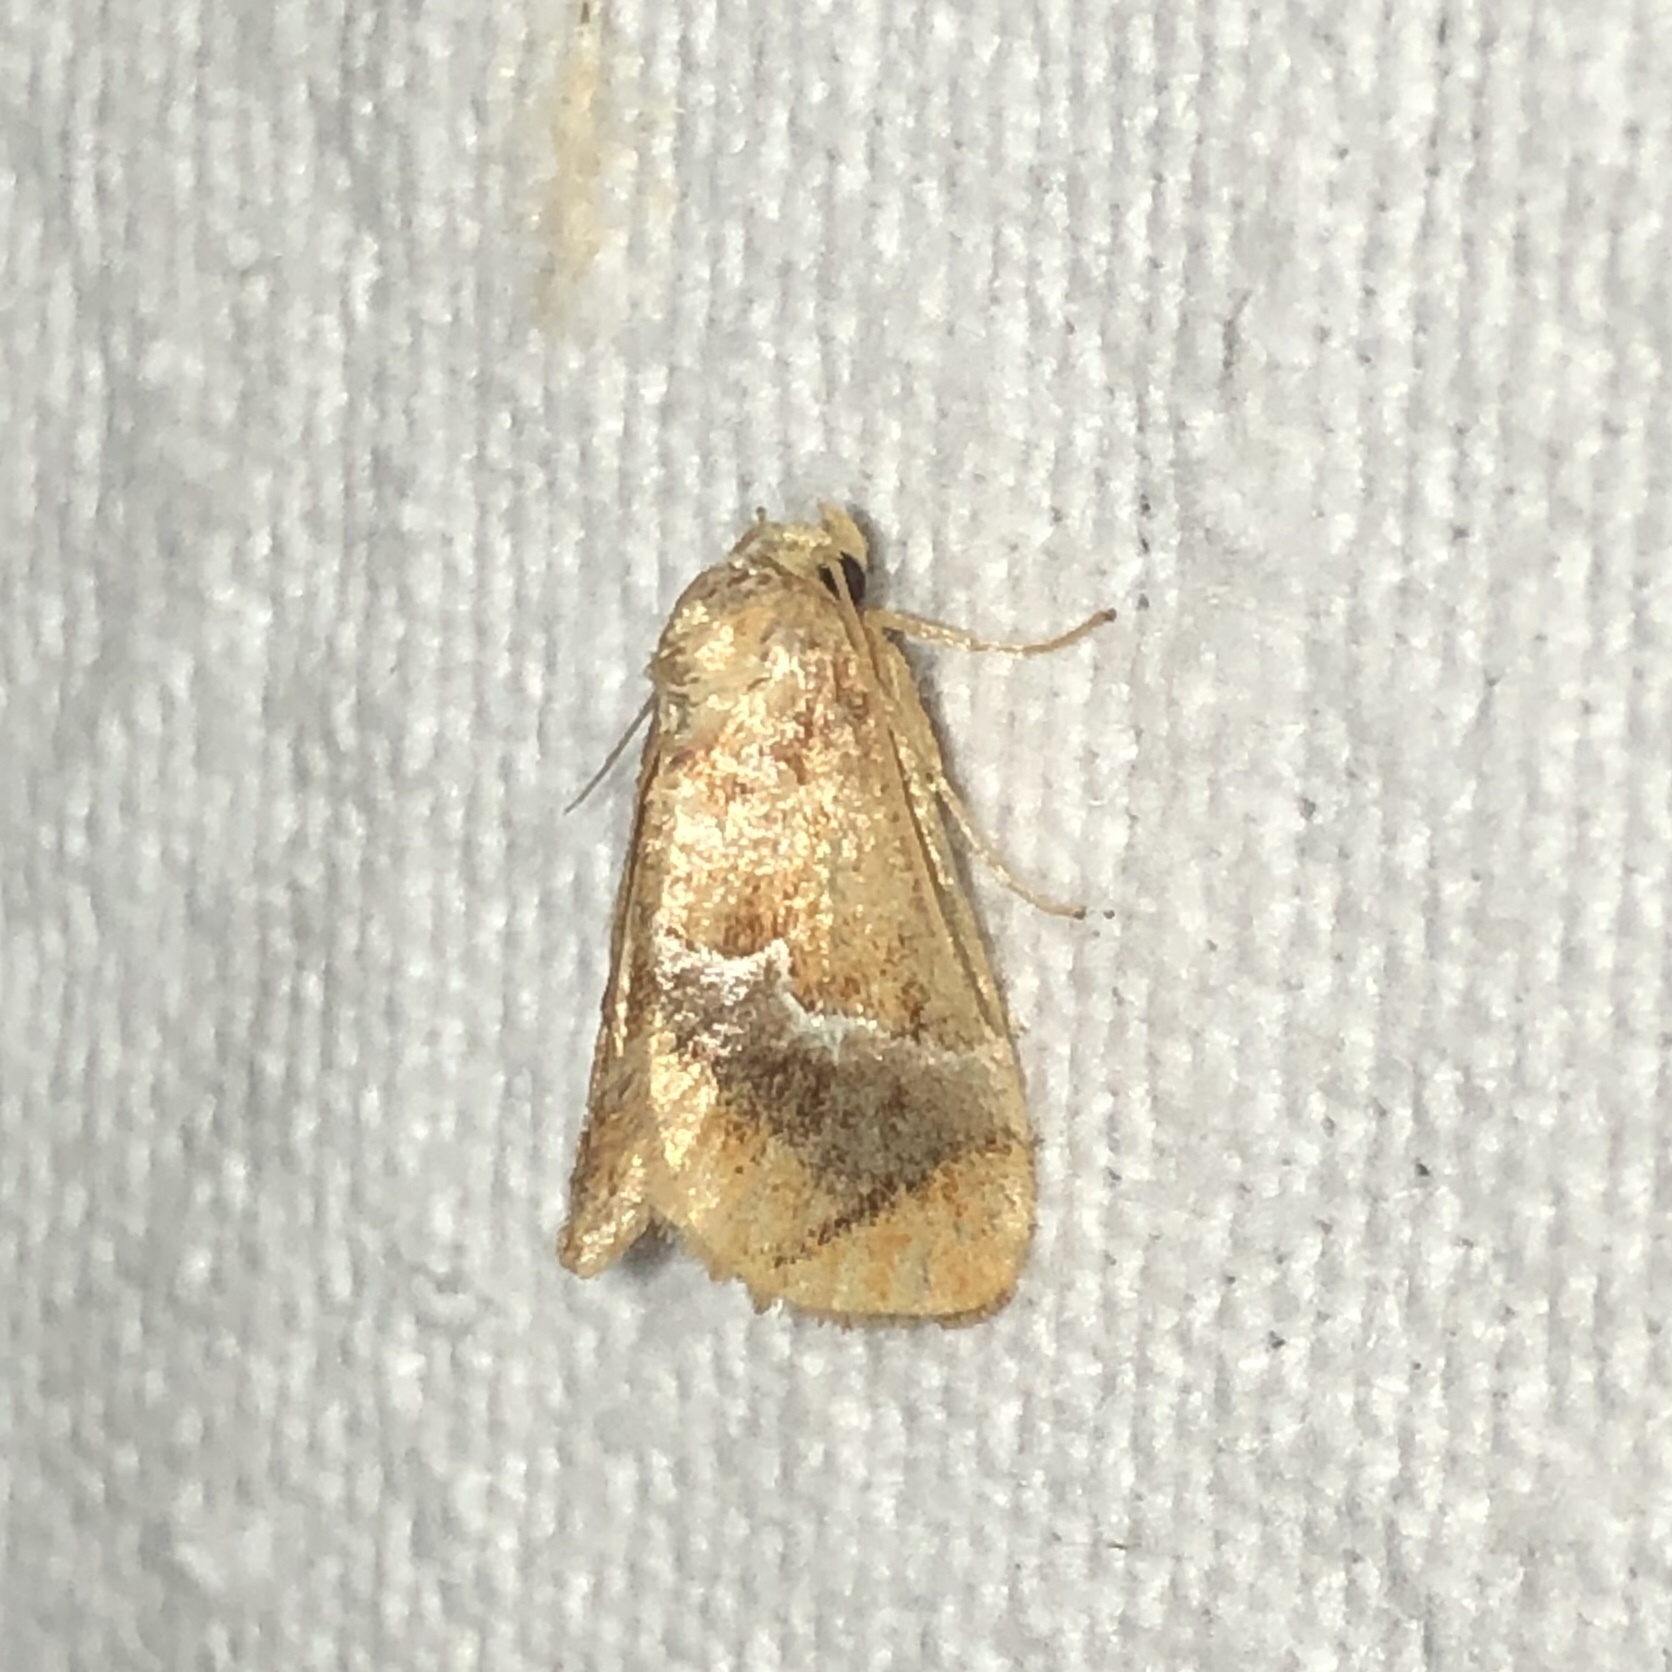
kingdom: Animalia
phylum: Arthropoda
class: Insecta
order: Lepidoptera
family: Limacodidae
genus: Lithacodes
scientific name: Lithacodes fasciola
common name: Yellow-shouldered slug moth
